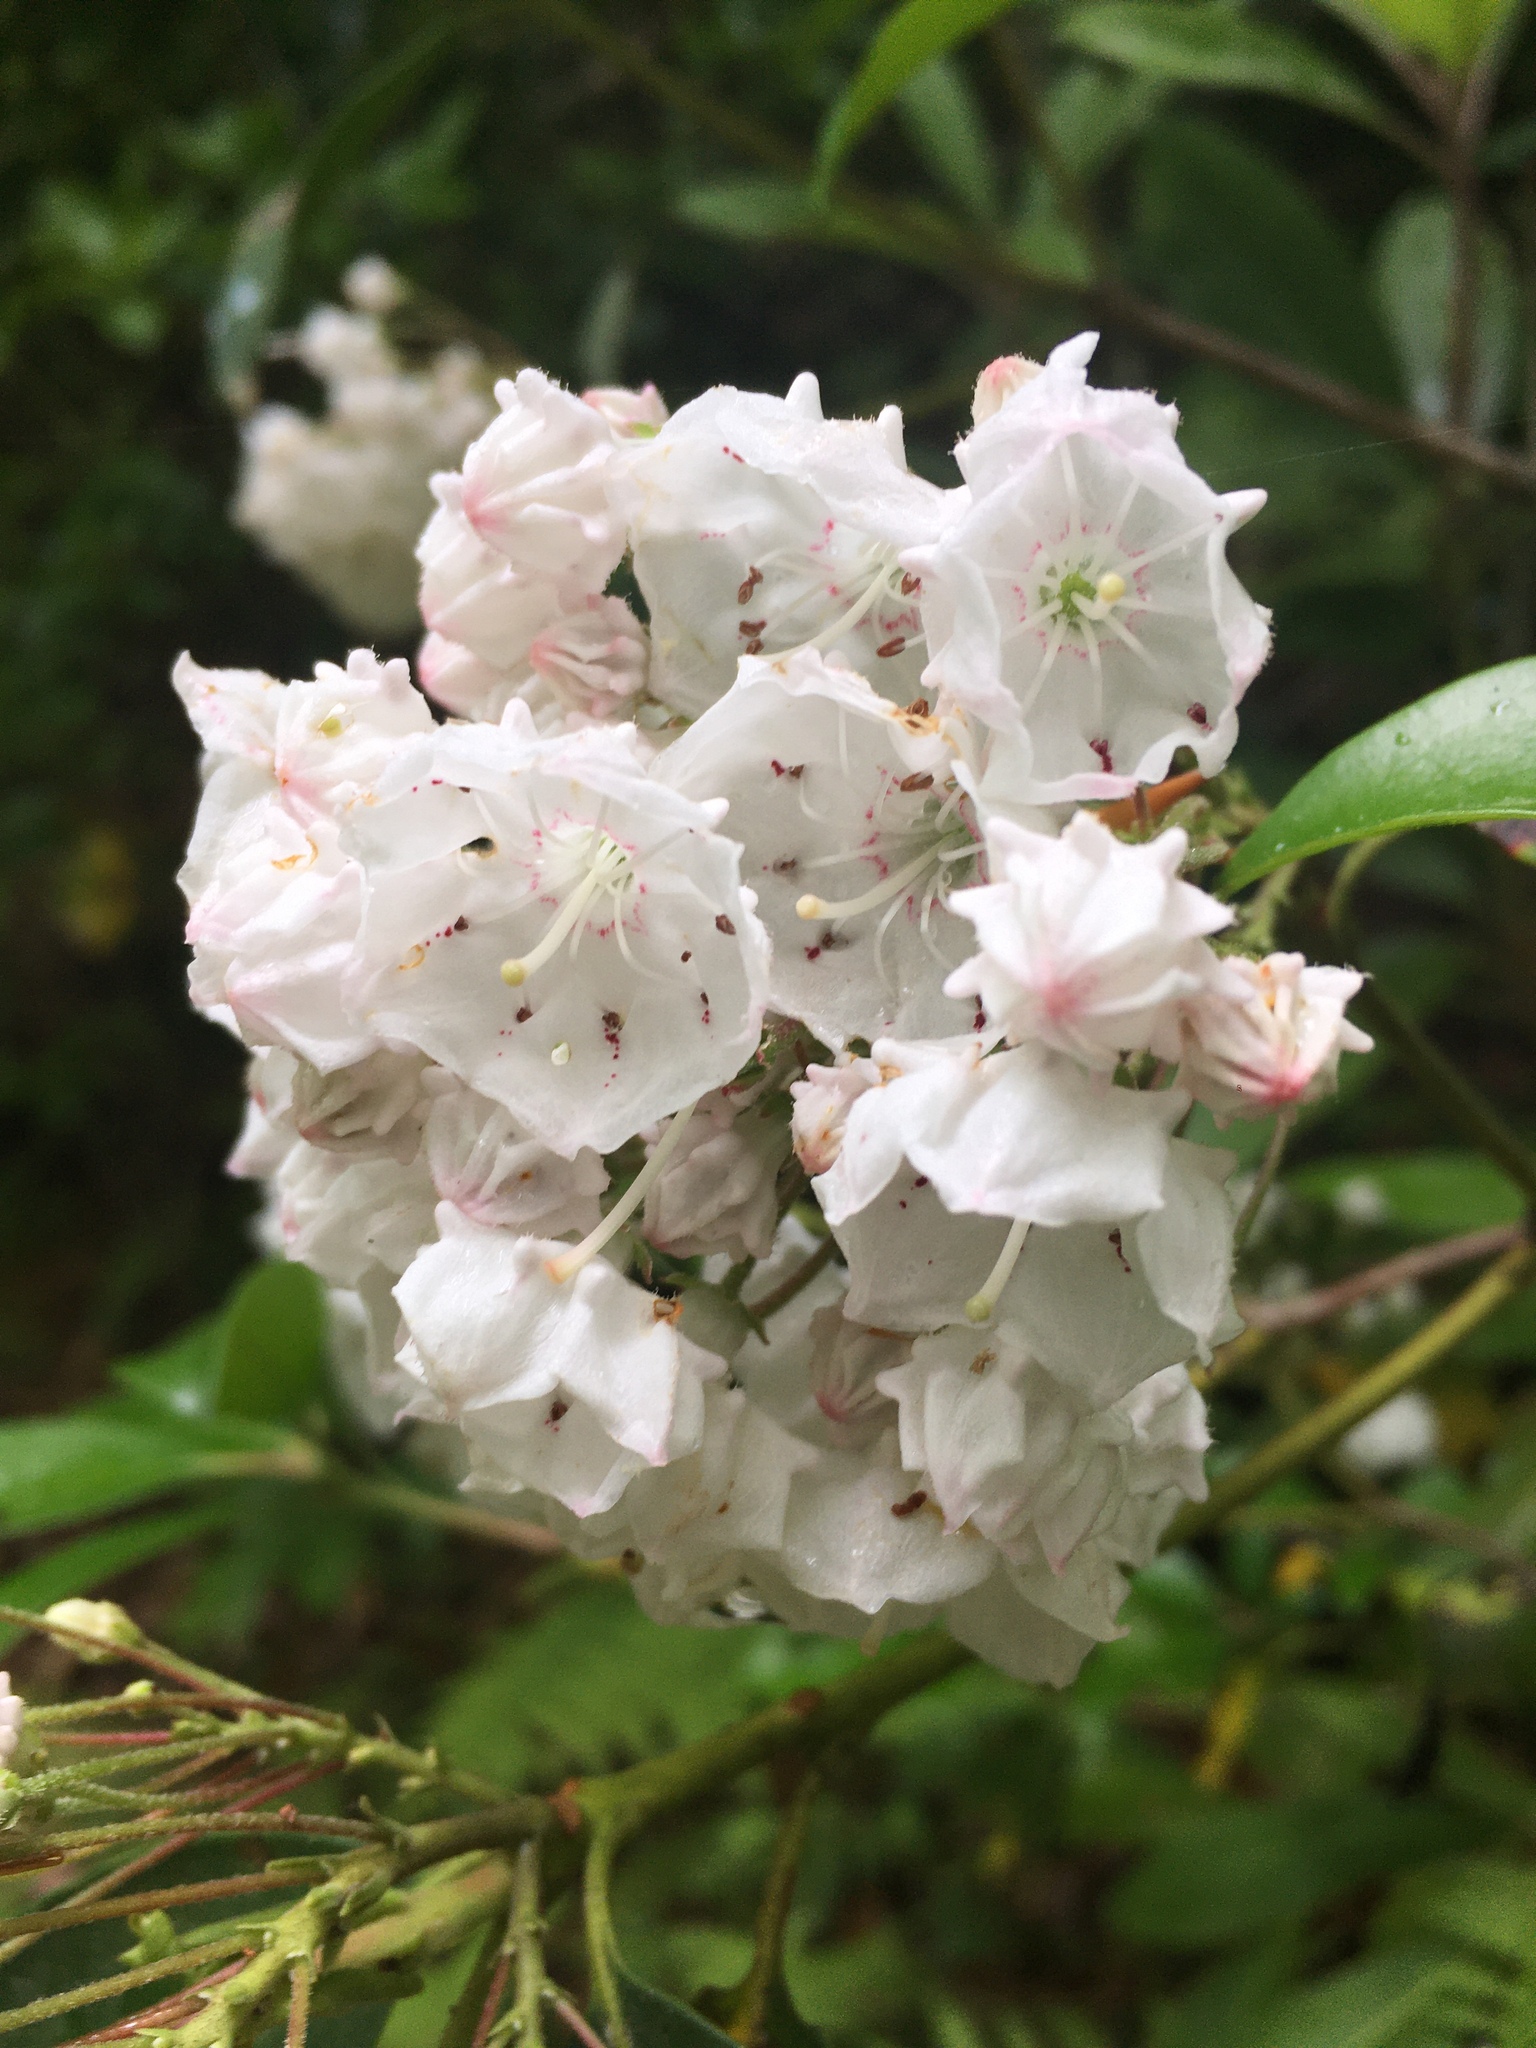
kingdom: Plantae
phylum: Tracheophyta
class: Magnoliopsida
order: Ericales
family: Ericaceae
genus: Kalmia
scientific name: Kalmia latifolia
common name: Mountain-laurel
